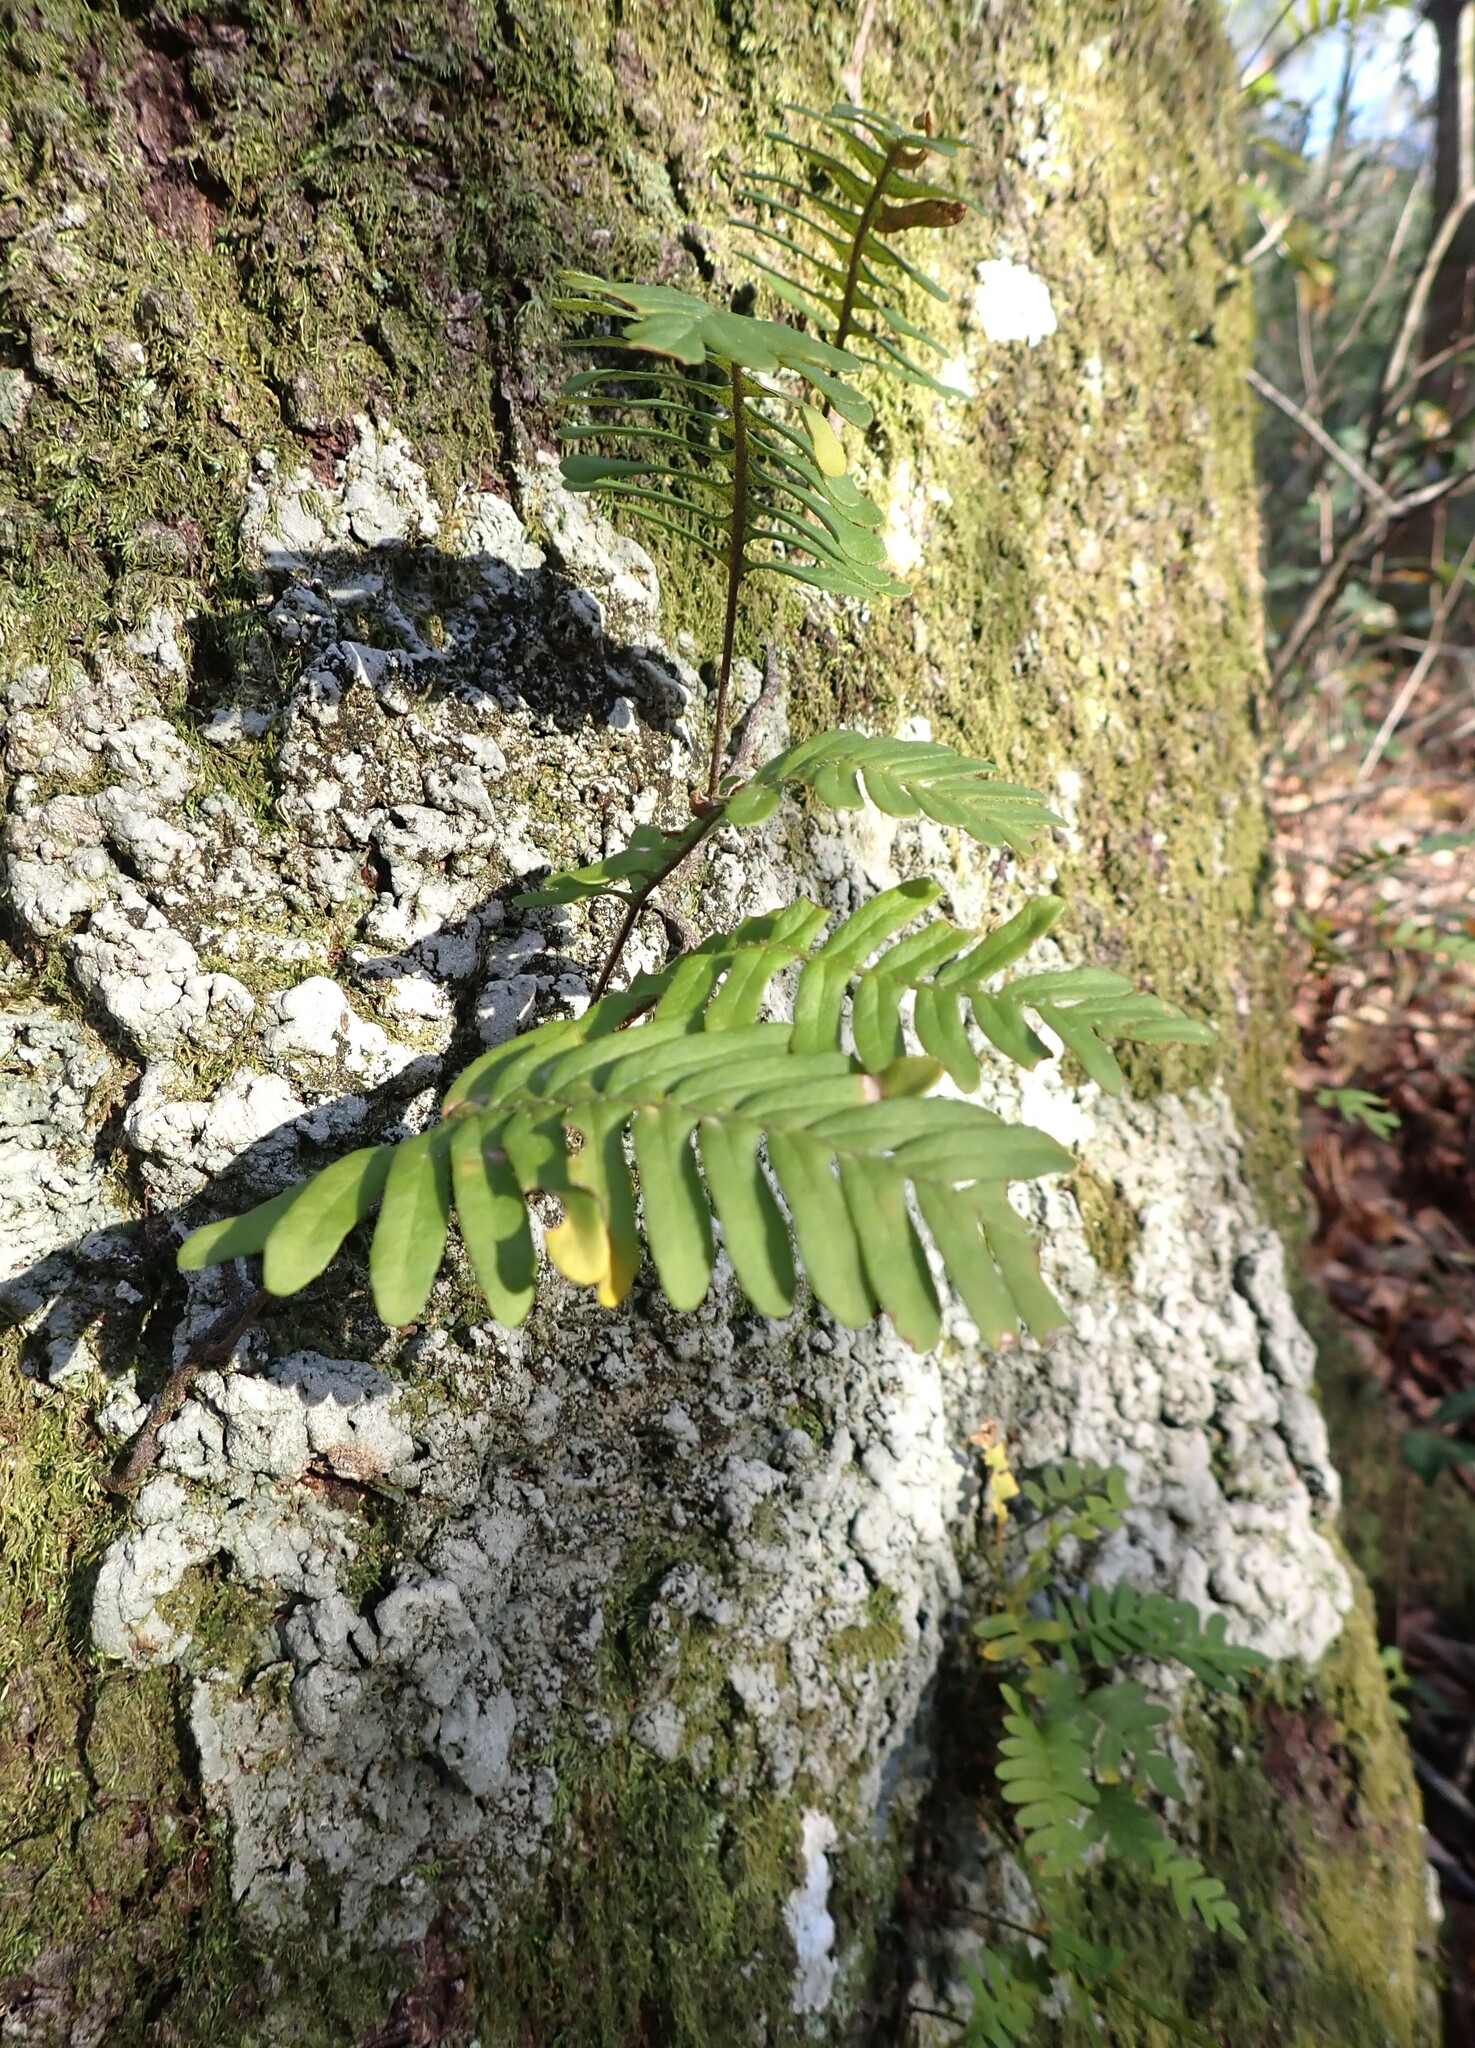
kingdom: Plantae
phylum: Tracheophyta
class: Polypodiopsida
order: Polypodiales
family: Polypodiaceae
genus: Pleopeltis
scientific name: Pleopeltis michauxiana
